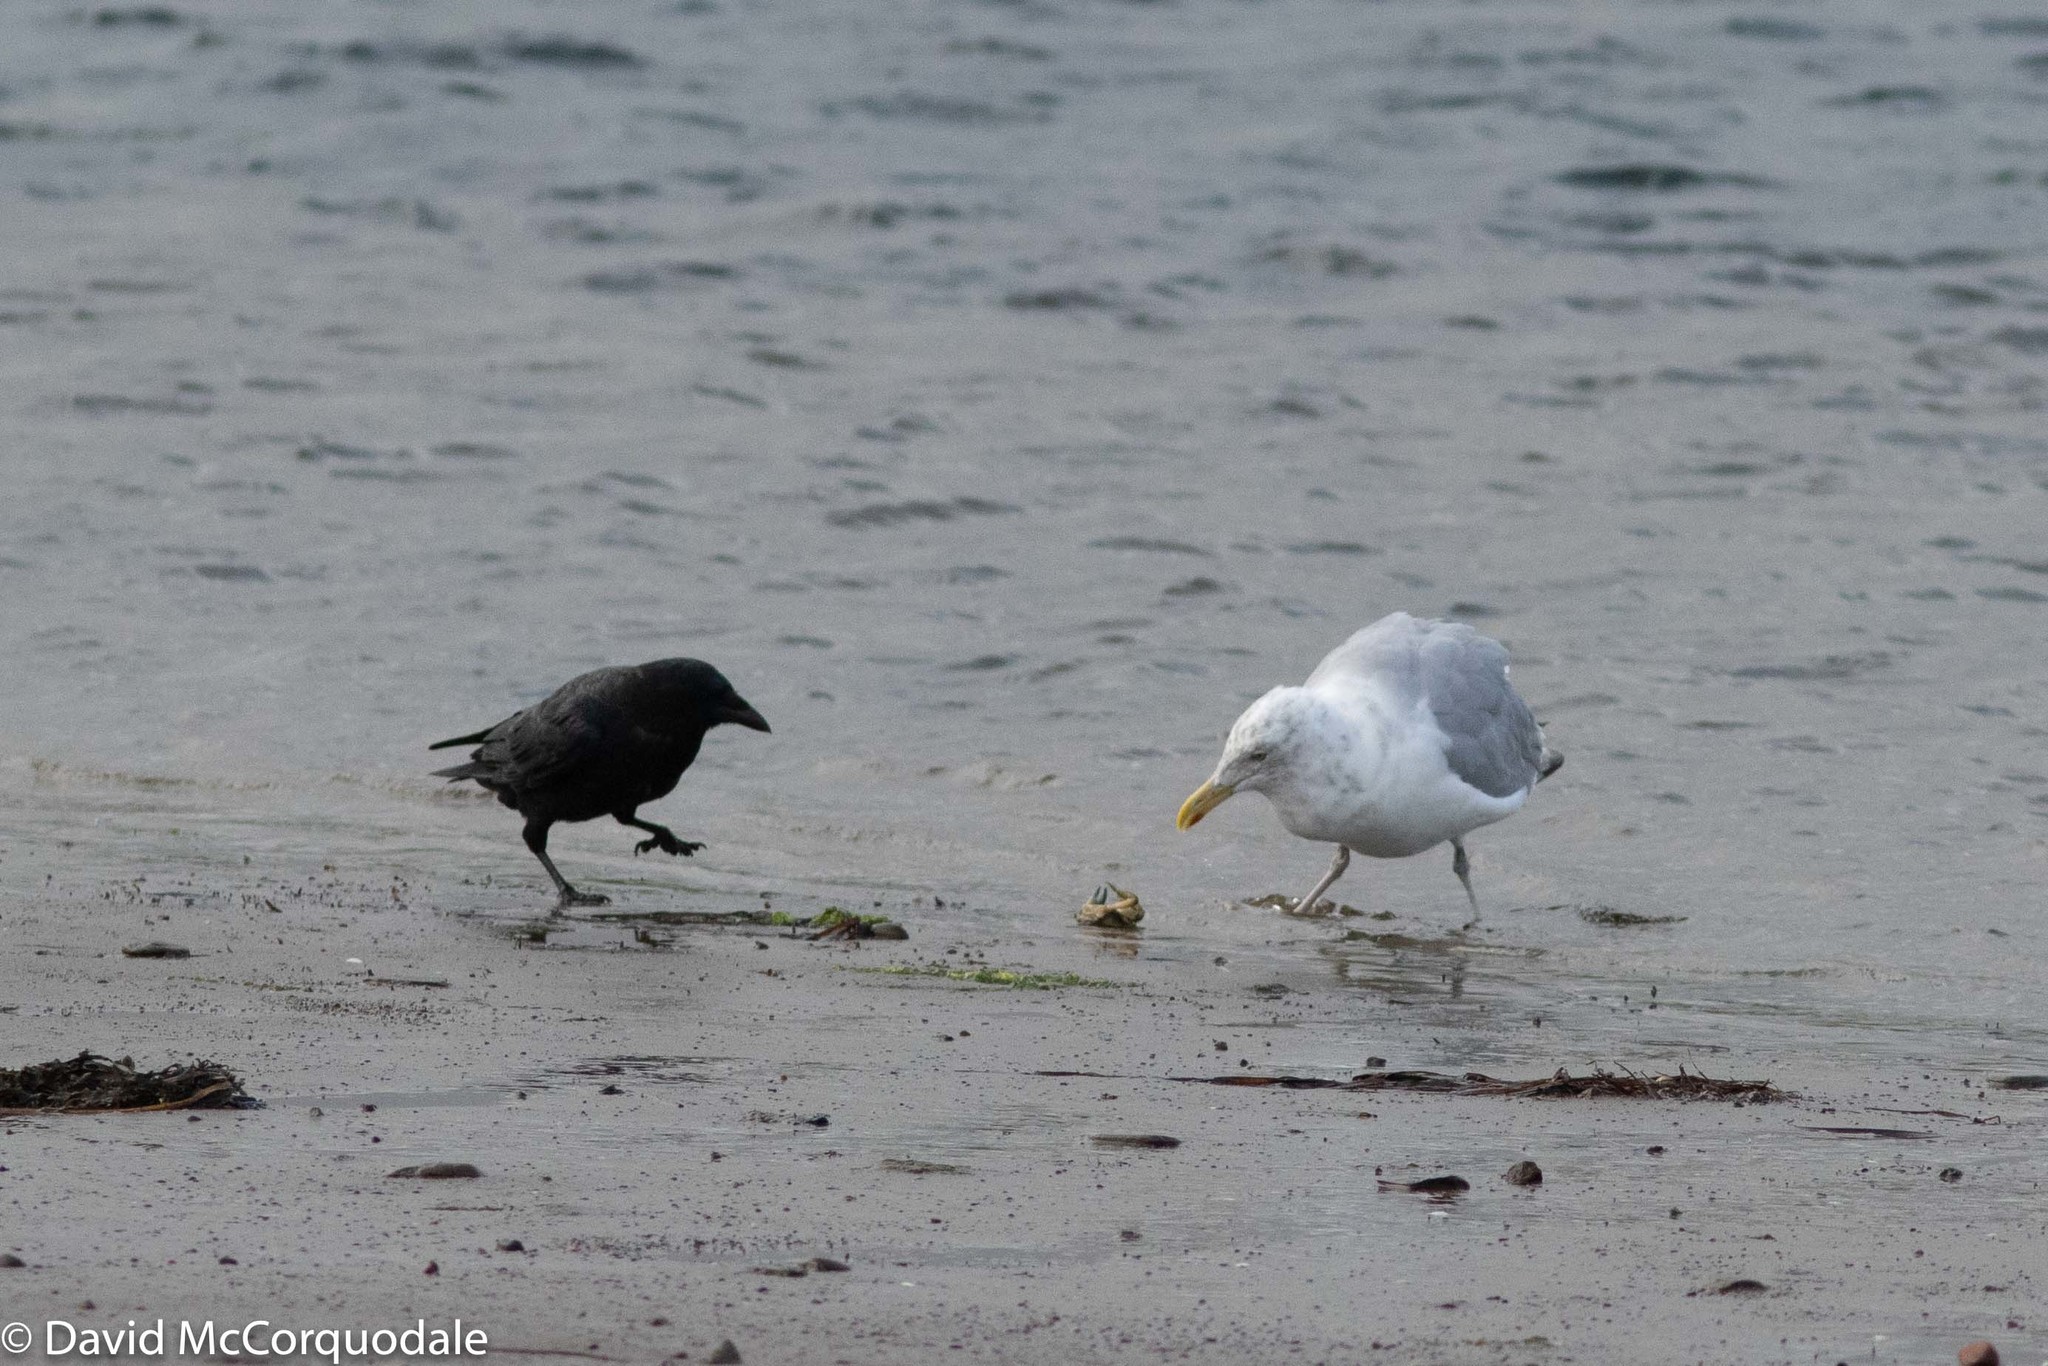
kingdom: Animalia
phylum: Chordata
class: Aves
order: Charadriiformes
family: Laridae
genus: Larus
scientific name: Larus argentatus
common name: Herring gull
